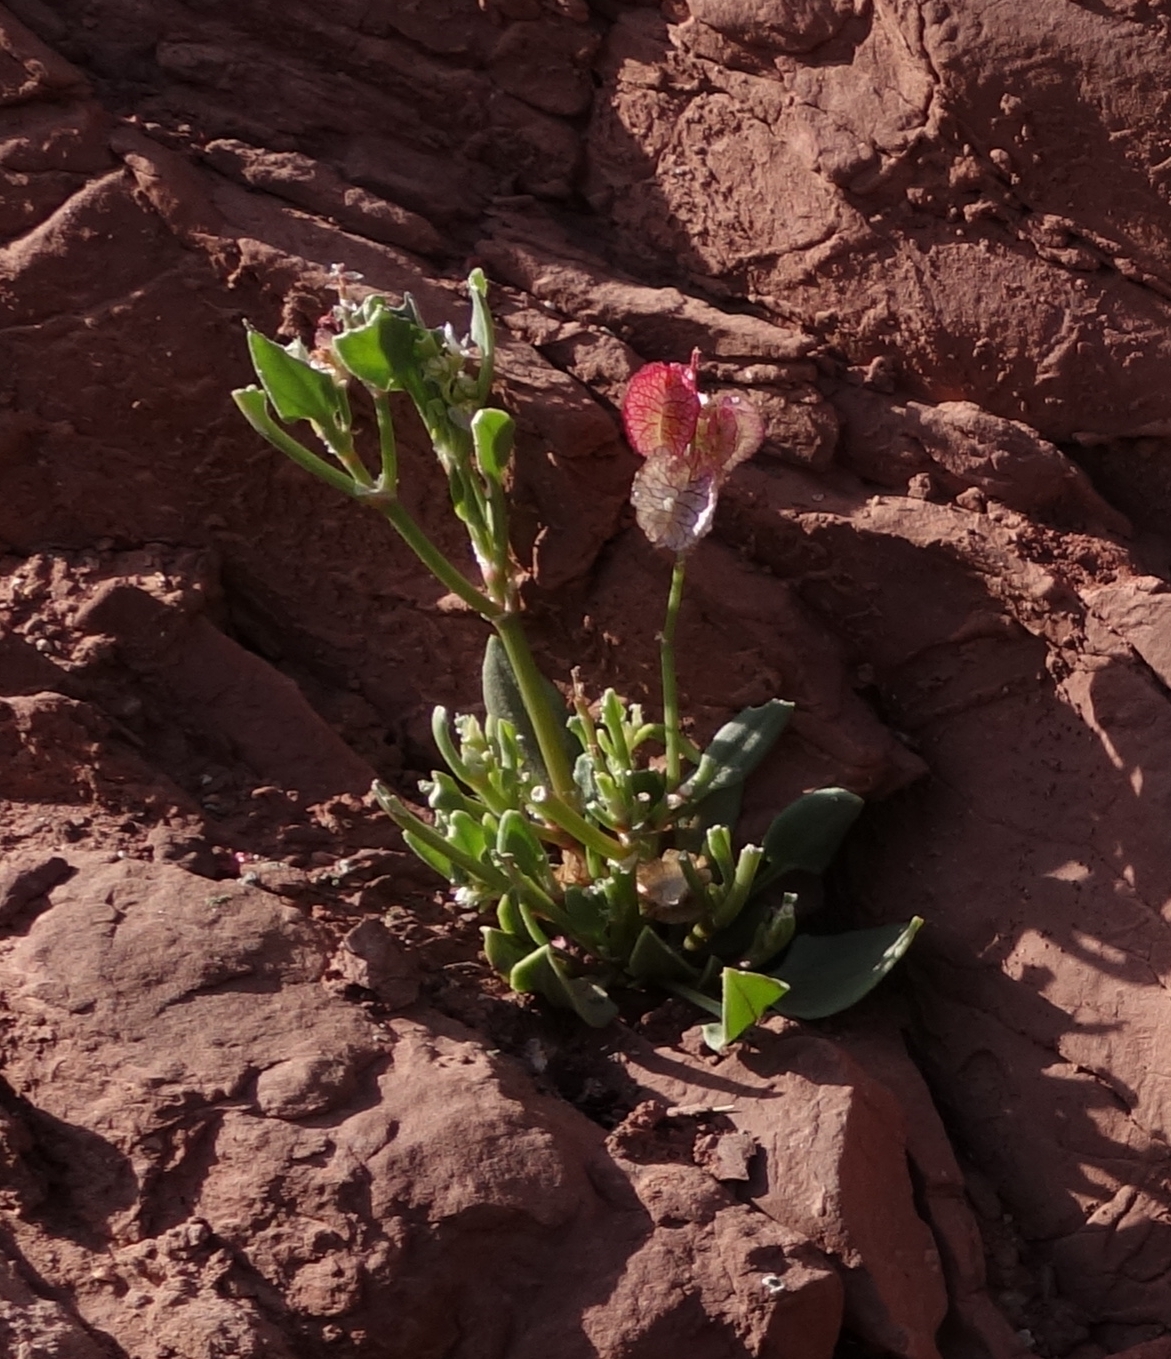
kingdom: Plantae
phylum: Tracheophyta
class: Magnoliopsida
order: Caryophyllales
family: Polygonaceae
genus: Rumex
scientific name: Rumex vesicarius
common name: Bladder dock
